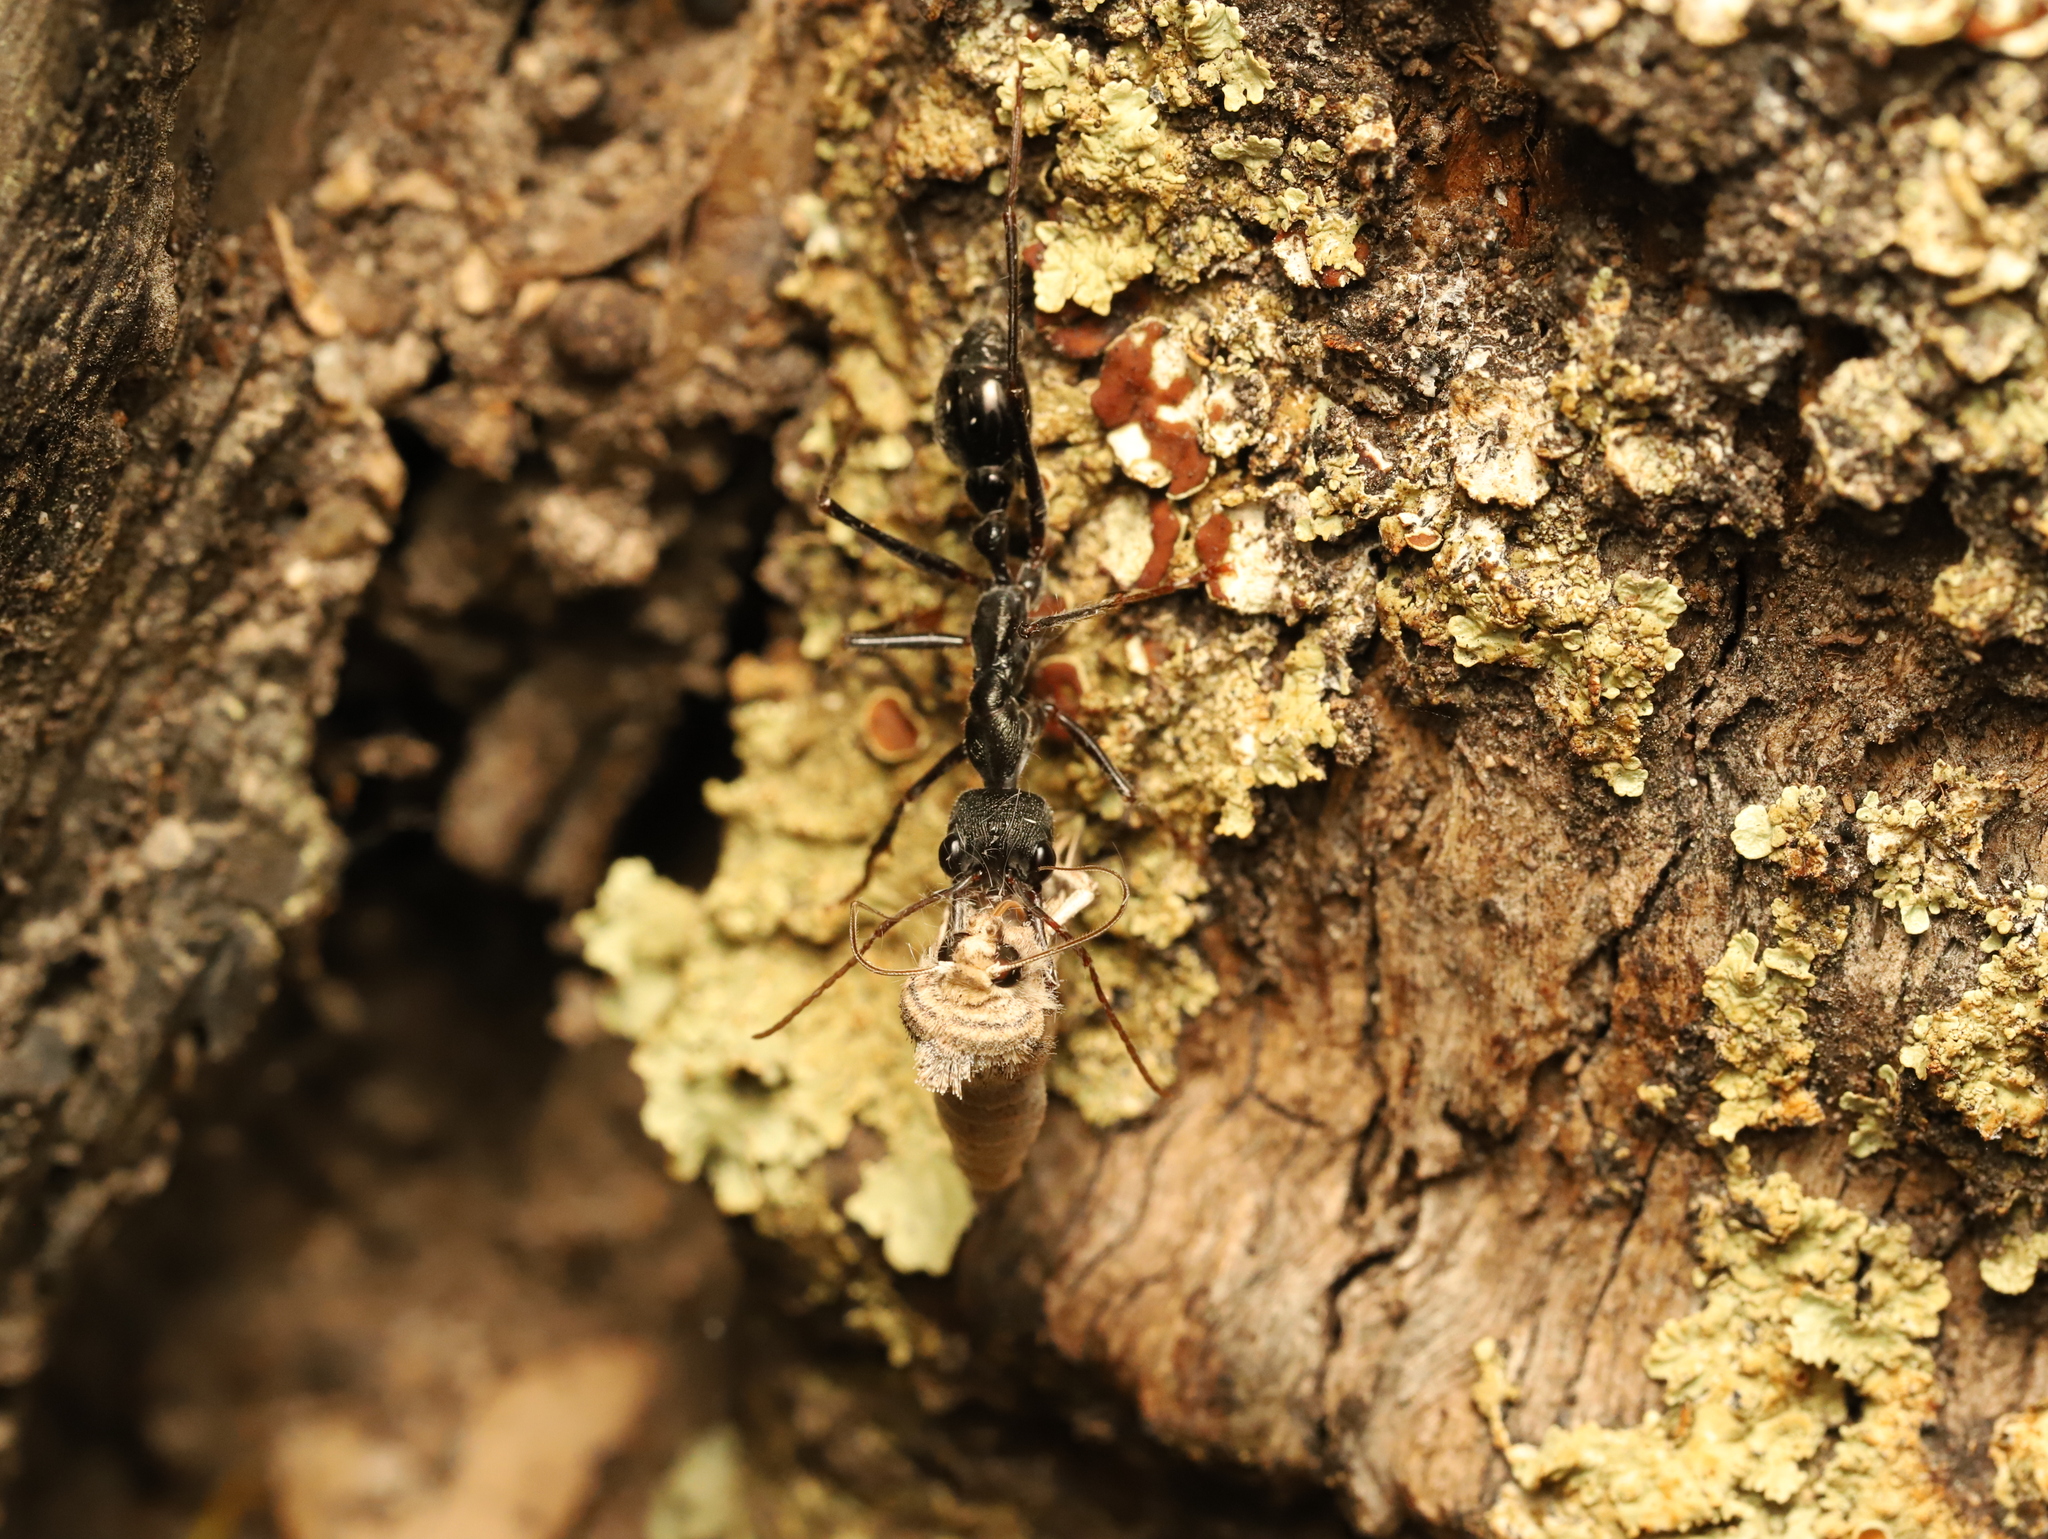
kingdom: Animalia
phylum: Arthropoda
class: Insecta
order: Hymenoptera
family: Formicidae
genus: Myrmecia
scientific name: Myrmecia pyriformis
